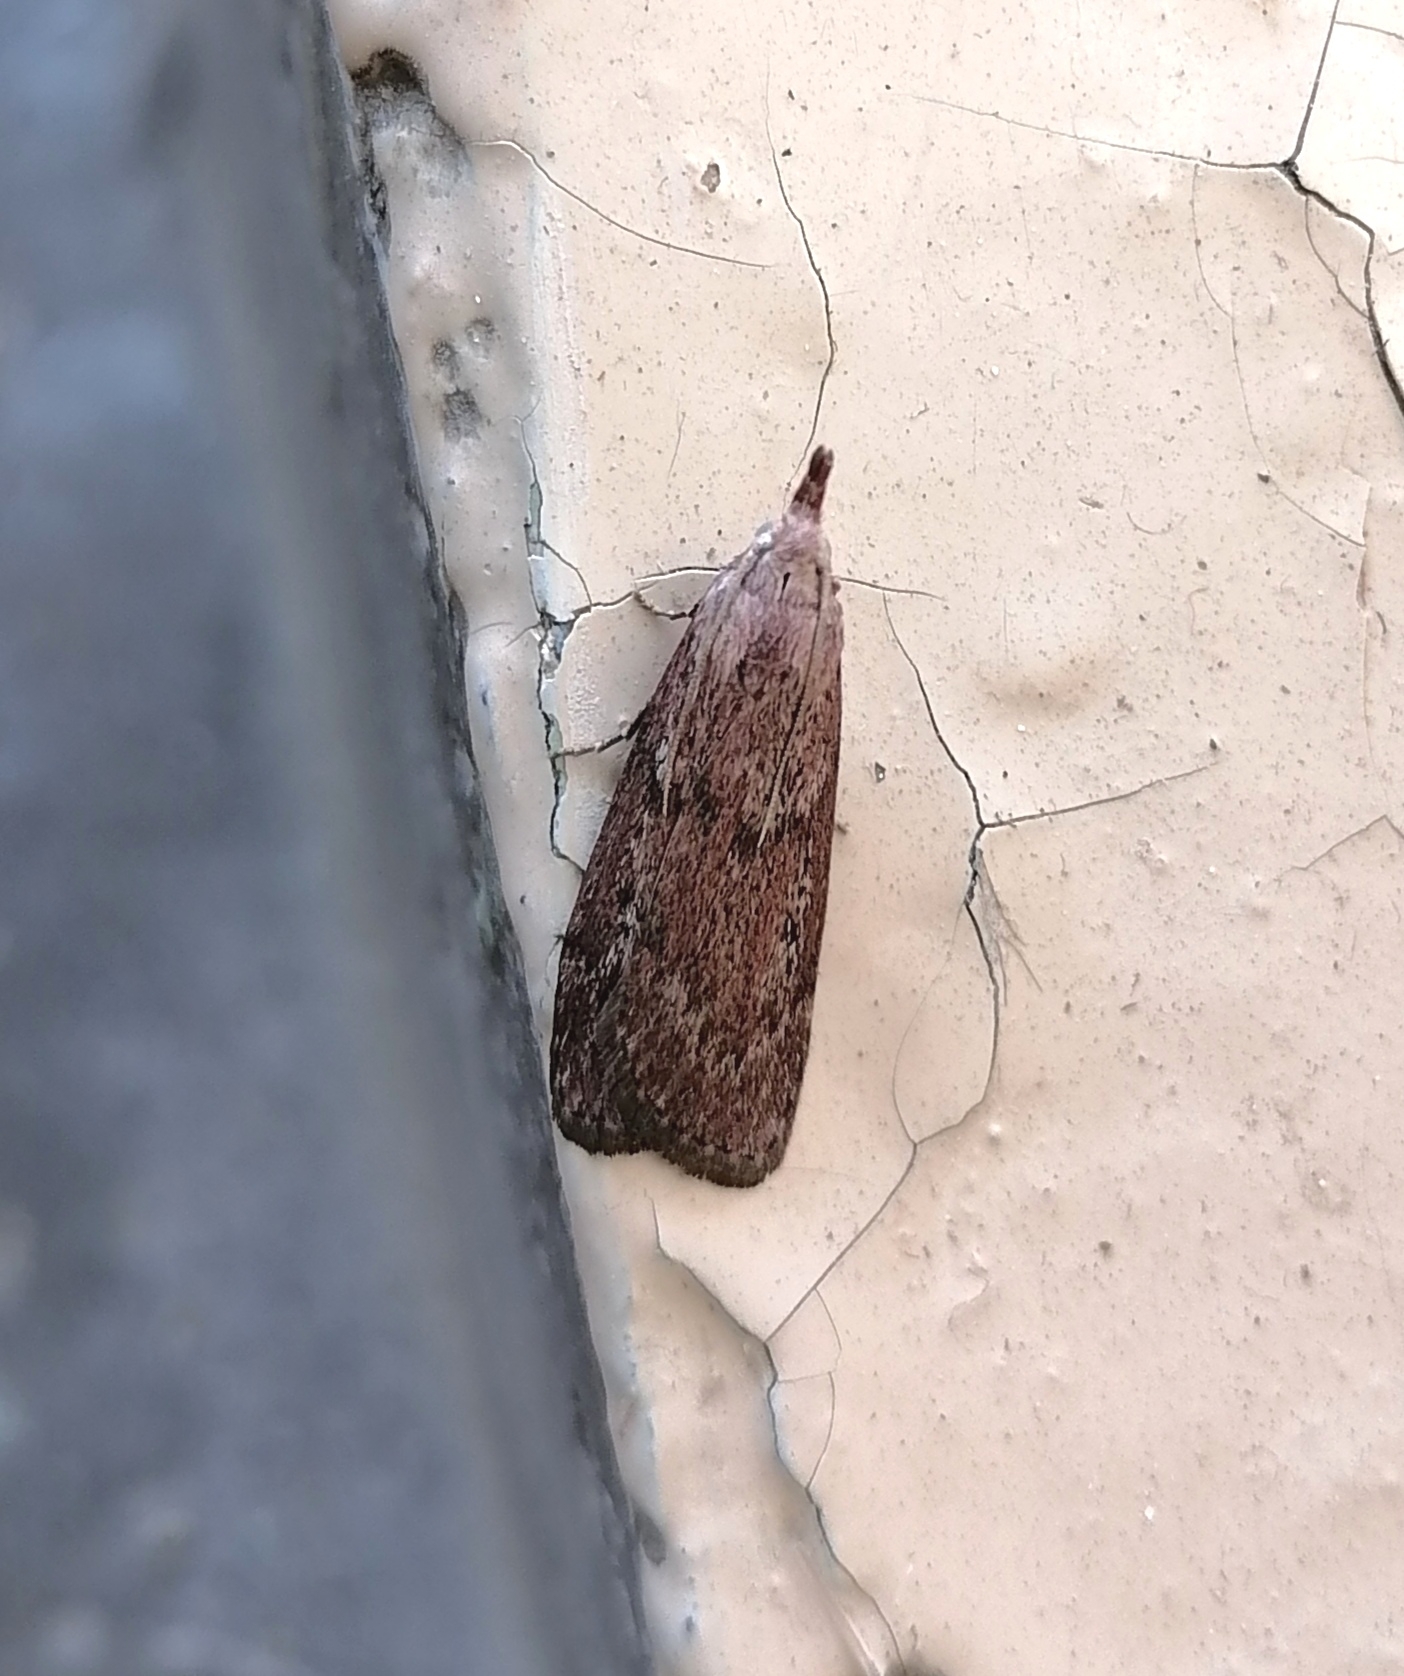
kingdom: Animalia
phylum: Arthropoda
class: Insecta
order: Lepidoptera
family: Pyralidae
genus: Aphomia
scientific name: Aphomia sociella
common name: Bee moth
